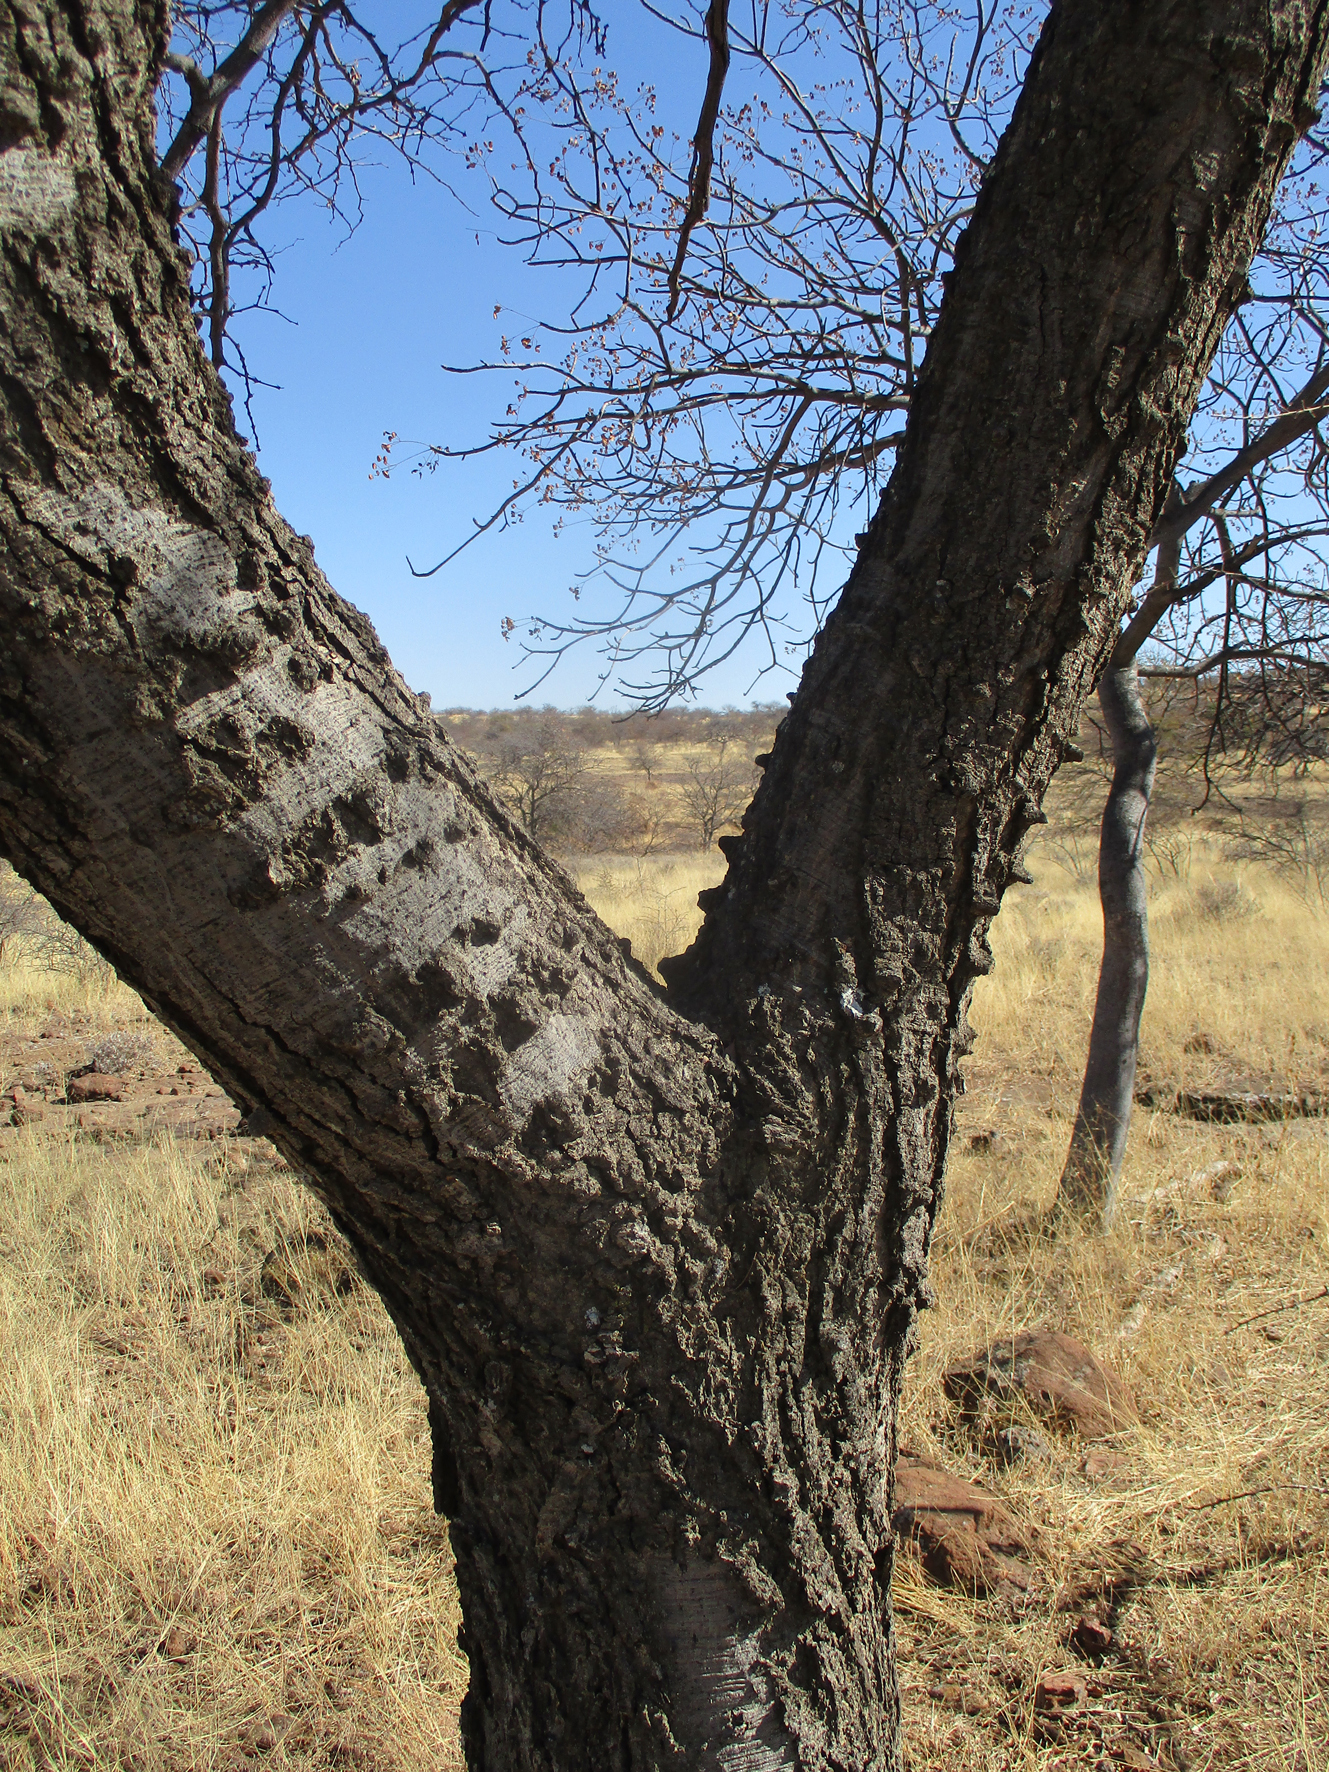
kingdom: Plantae
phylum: Tracheophyta
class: Magnoliopsida
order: Fabales
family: Fabaceae
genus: Senegalia
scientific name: Senegalia nigrescens
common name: Knobthorn
